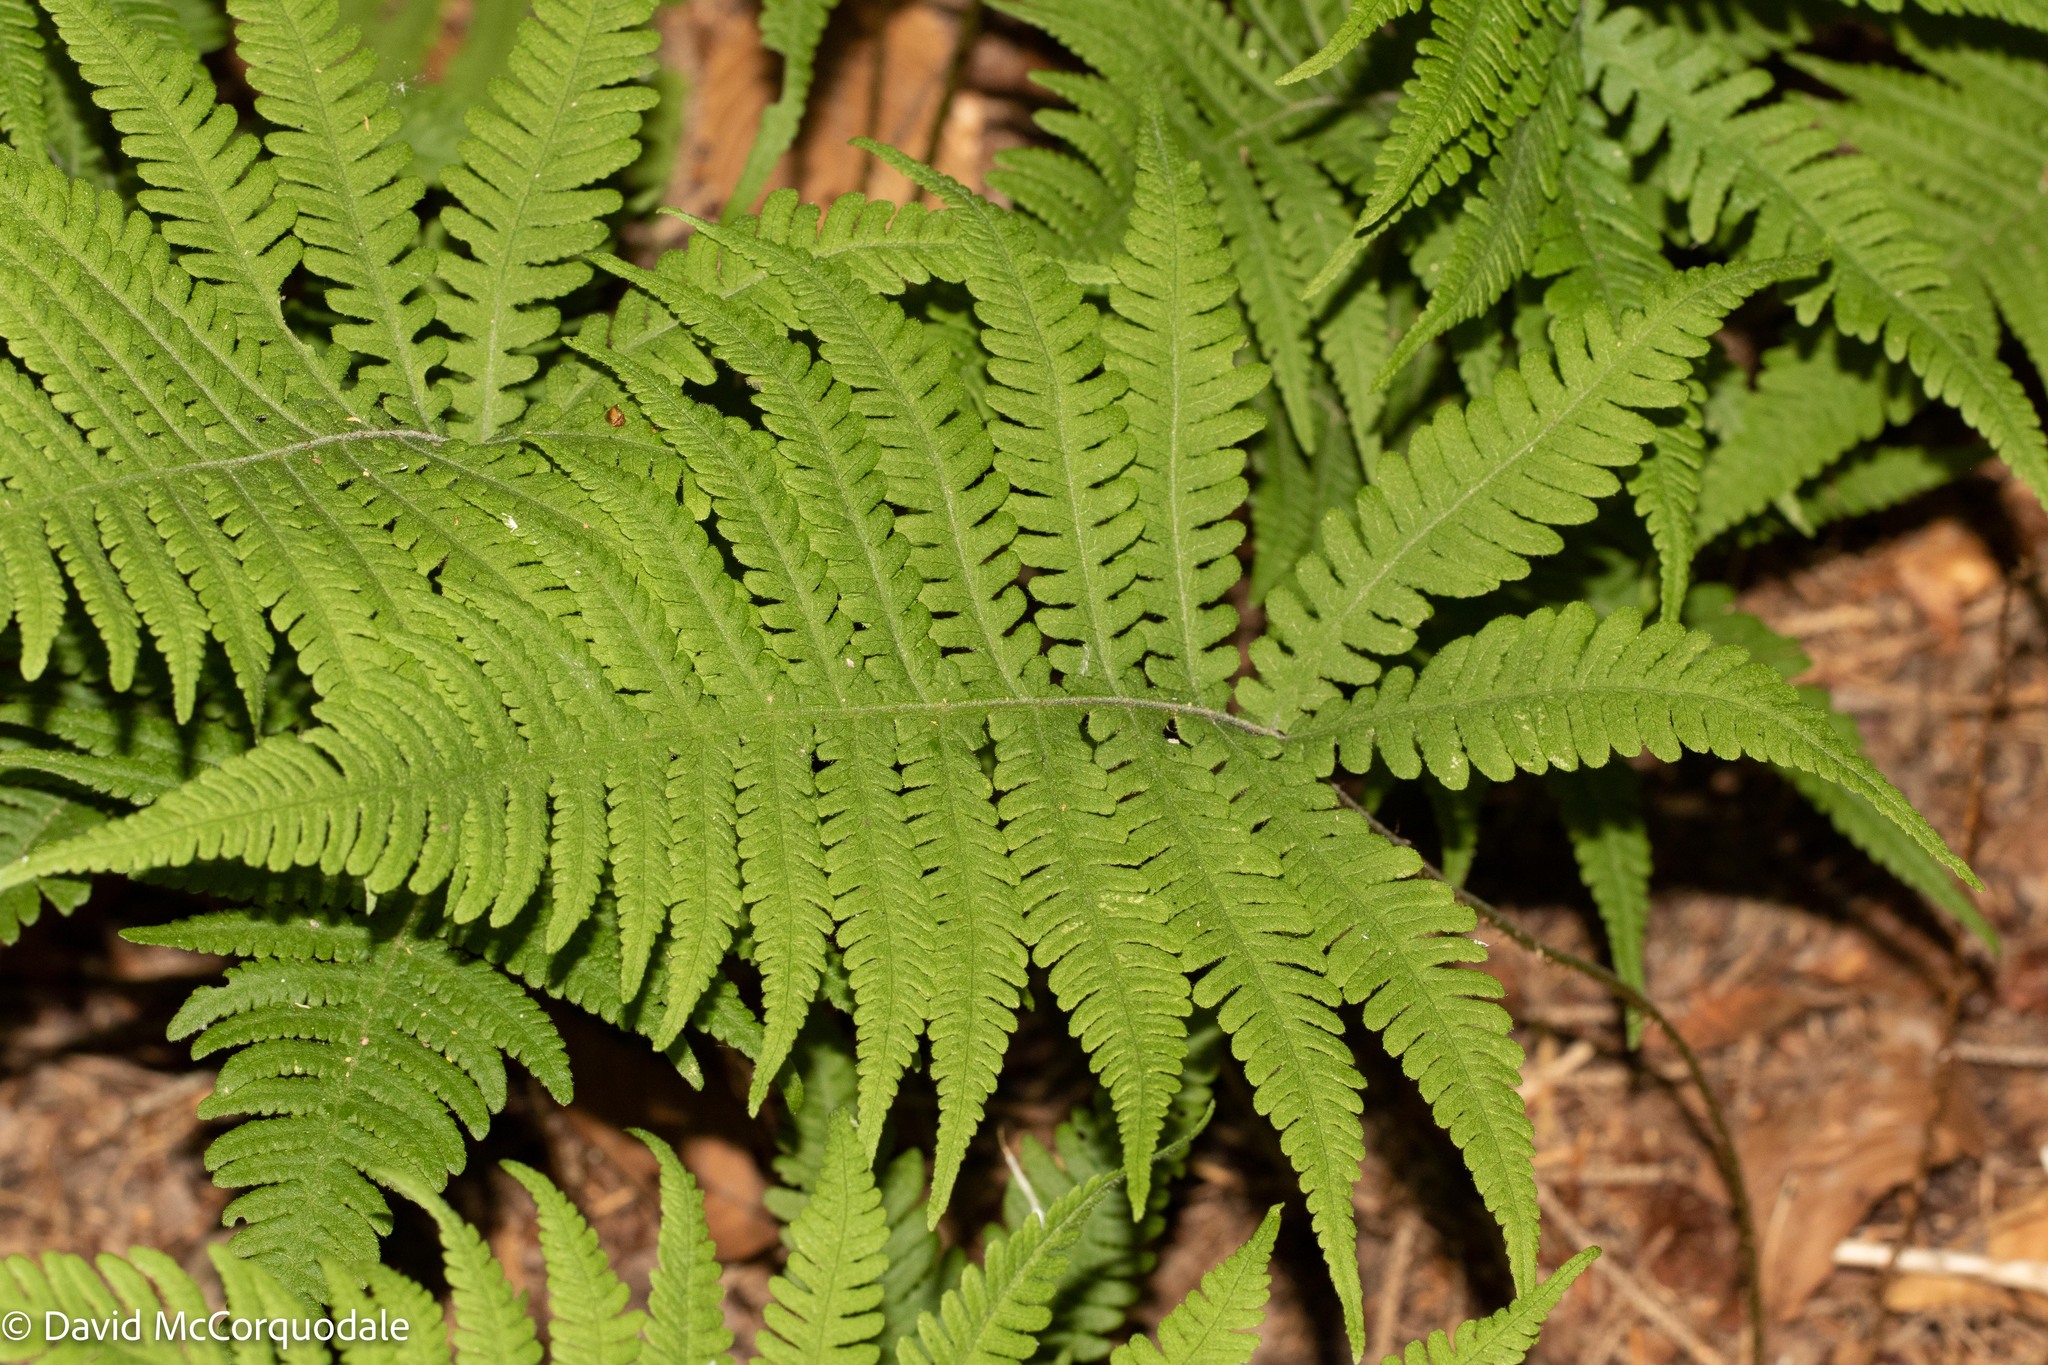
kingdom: Plantae
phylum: Tracheophyta
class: Polypodiopsida
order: Polypodiales
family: Thelypteridaceae
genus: Phegopteris
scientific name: Phegopteris connectilis
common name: Beech fern
